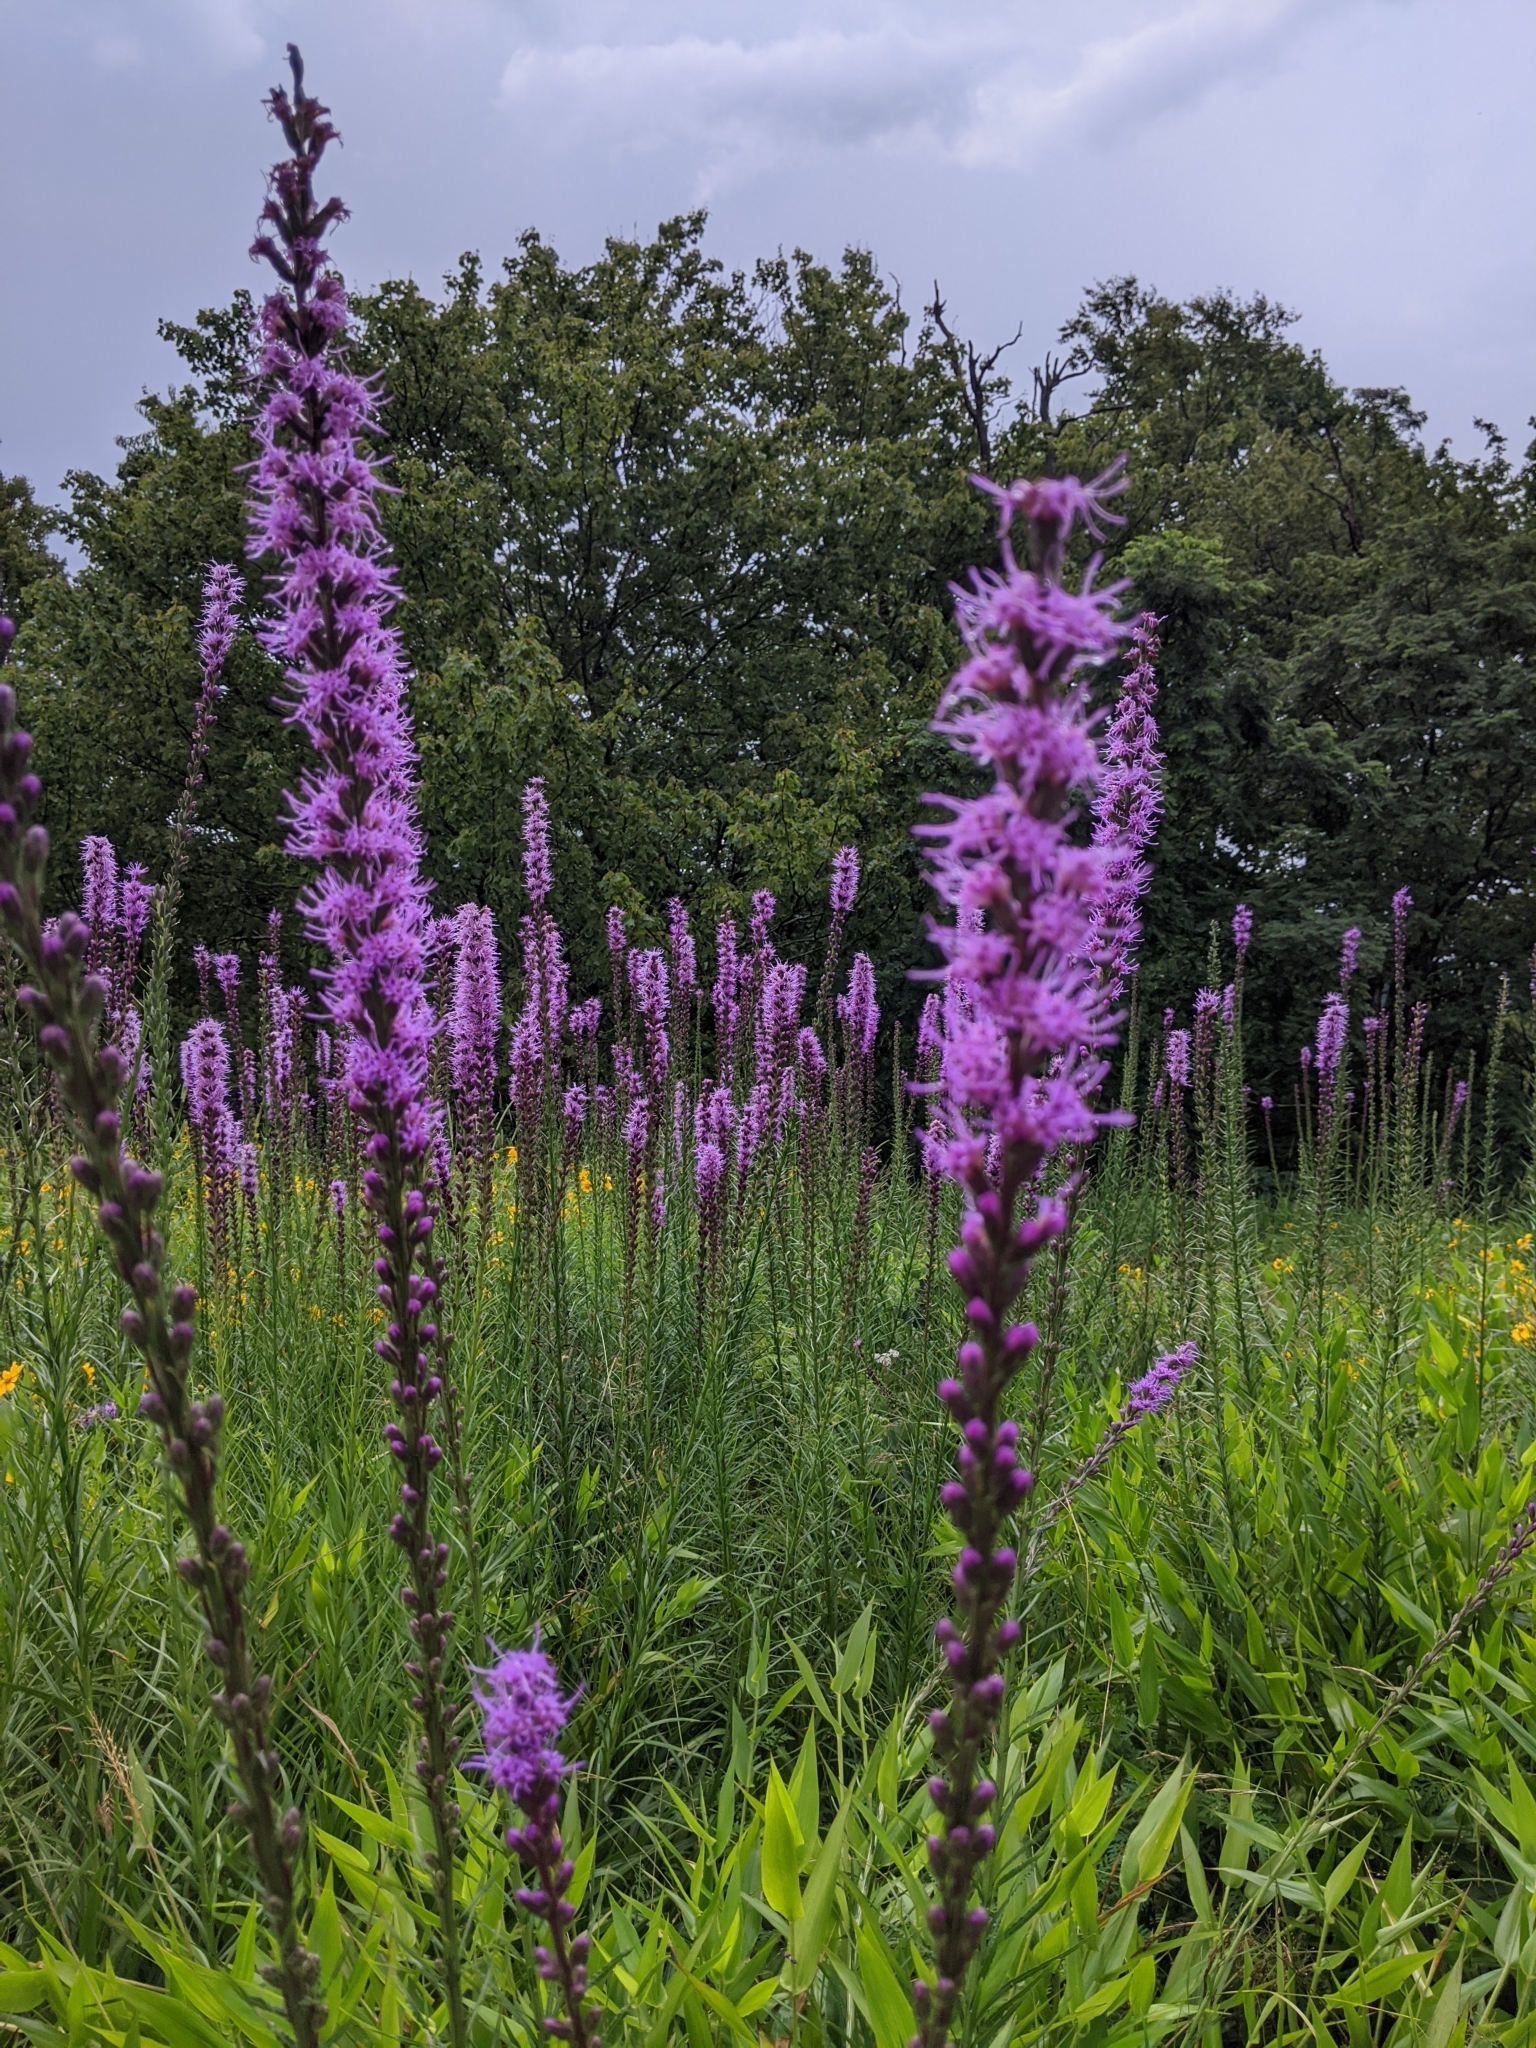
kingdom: Plantae
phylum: Tracheophyta
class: Magnoliopsida
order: Asterales
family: Asteraceae
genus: Liatris
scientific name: Liatris spicata
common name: Florist gayfeather
